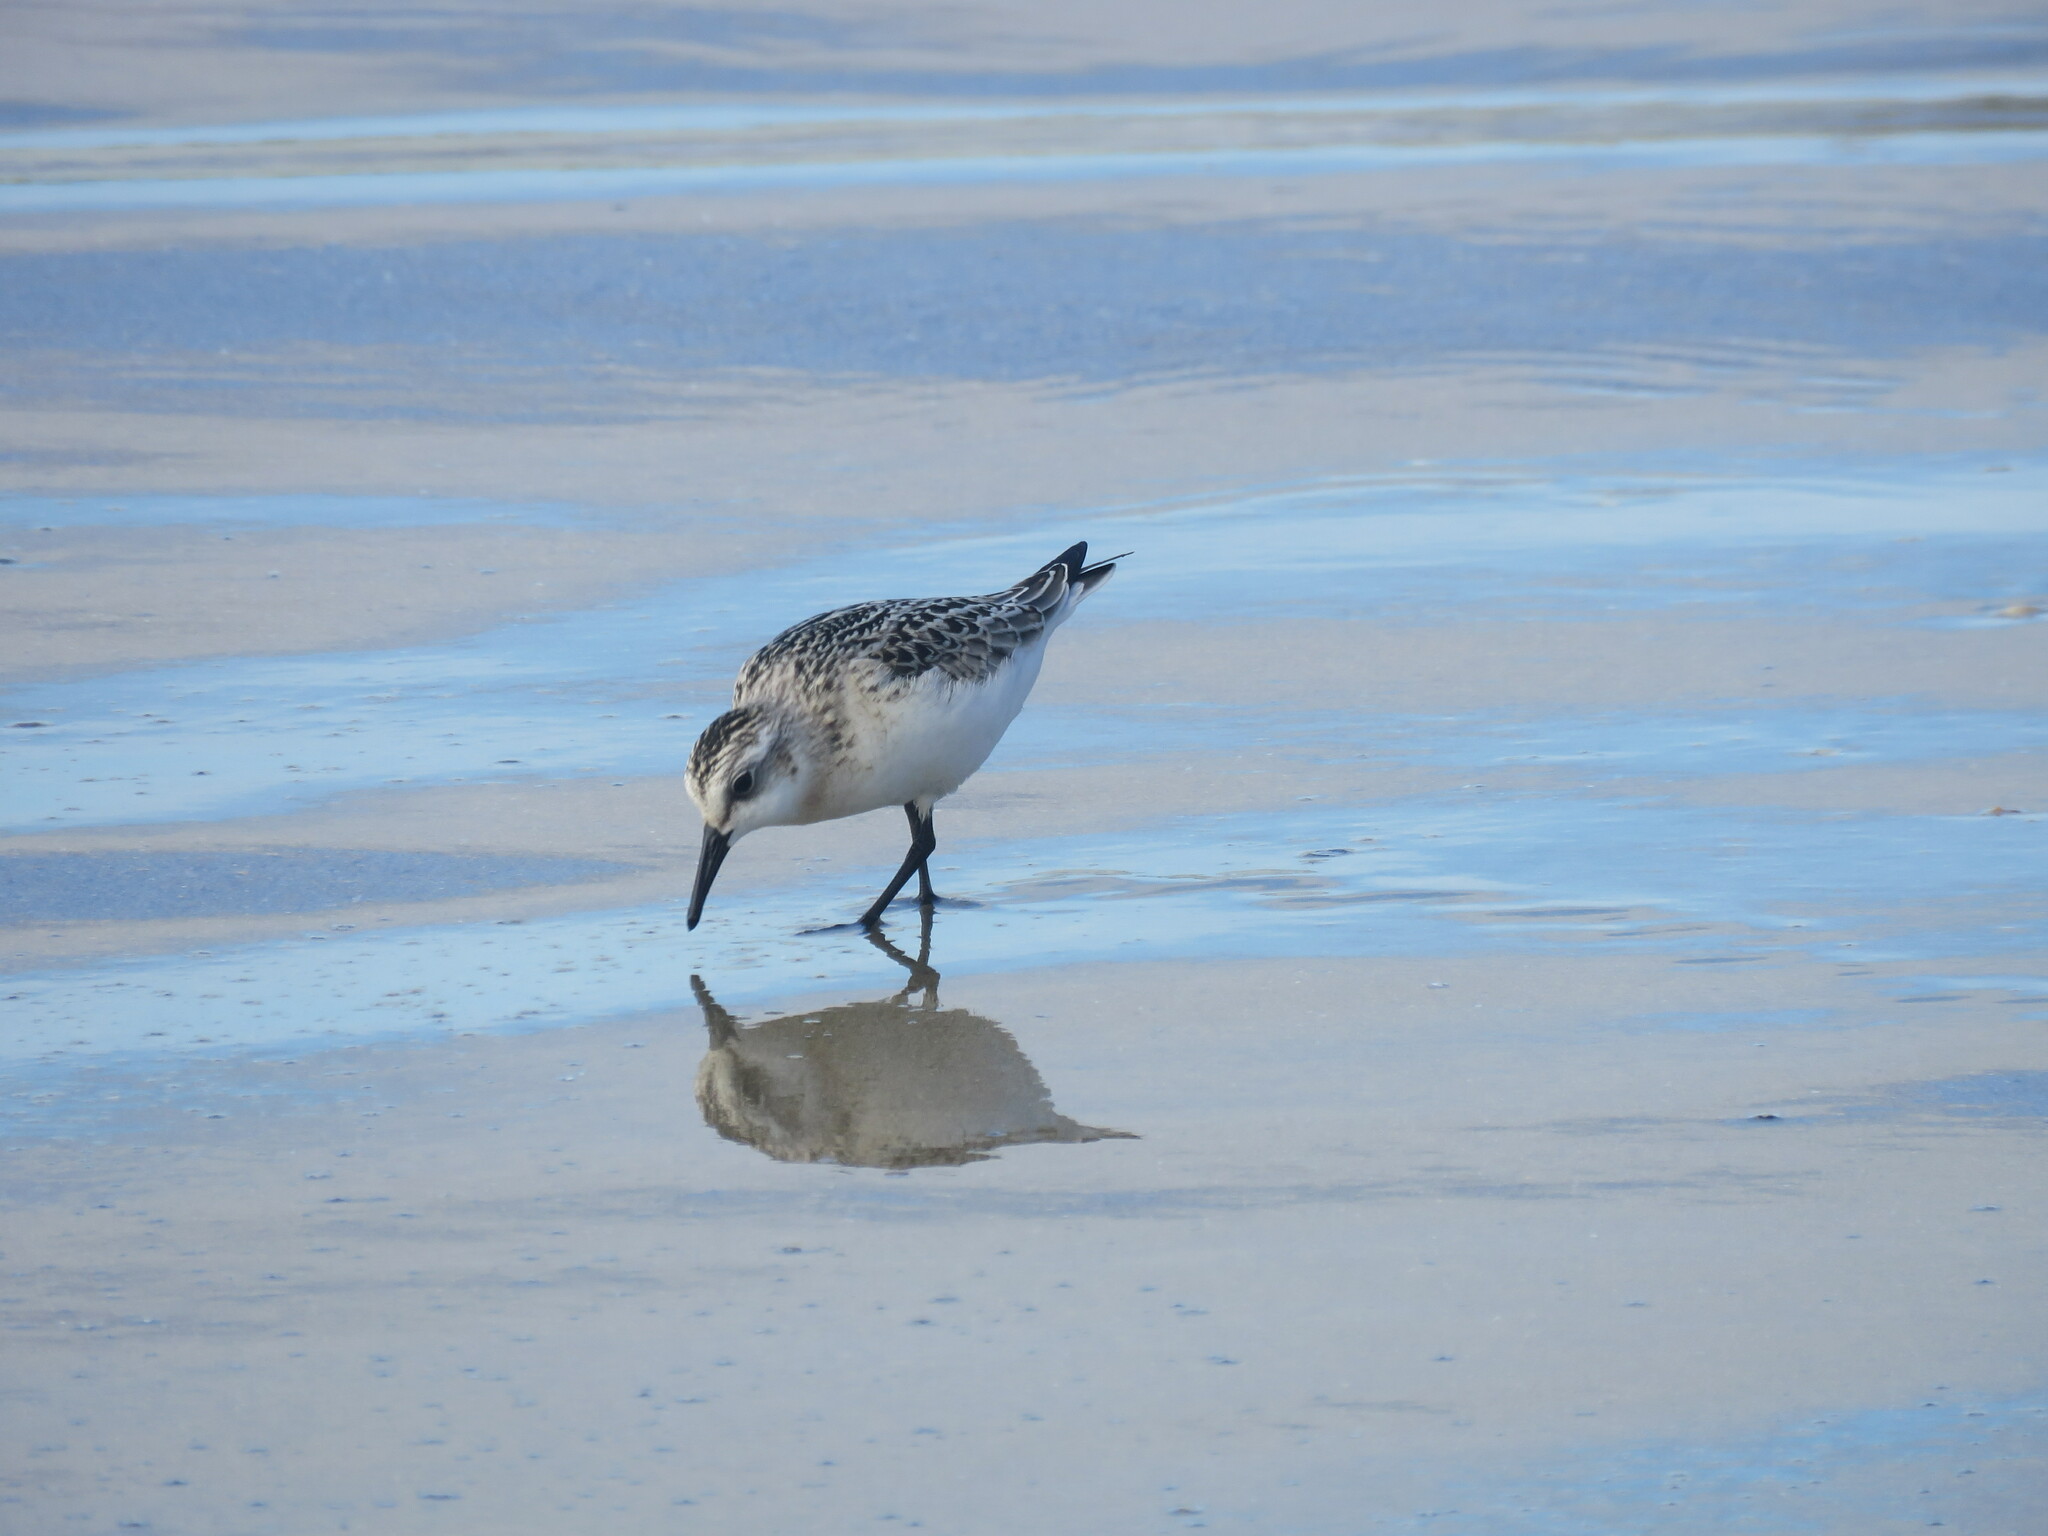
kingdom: Animalia
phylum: Chordata
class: Aves
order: Charadriiformes
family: Scolopacidae
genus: Calidris
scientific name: Calidris alba
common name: Sanderling
